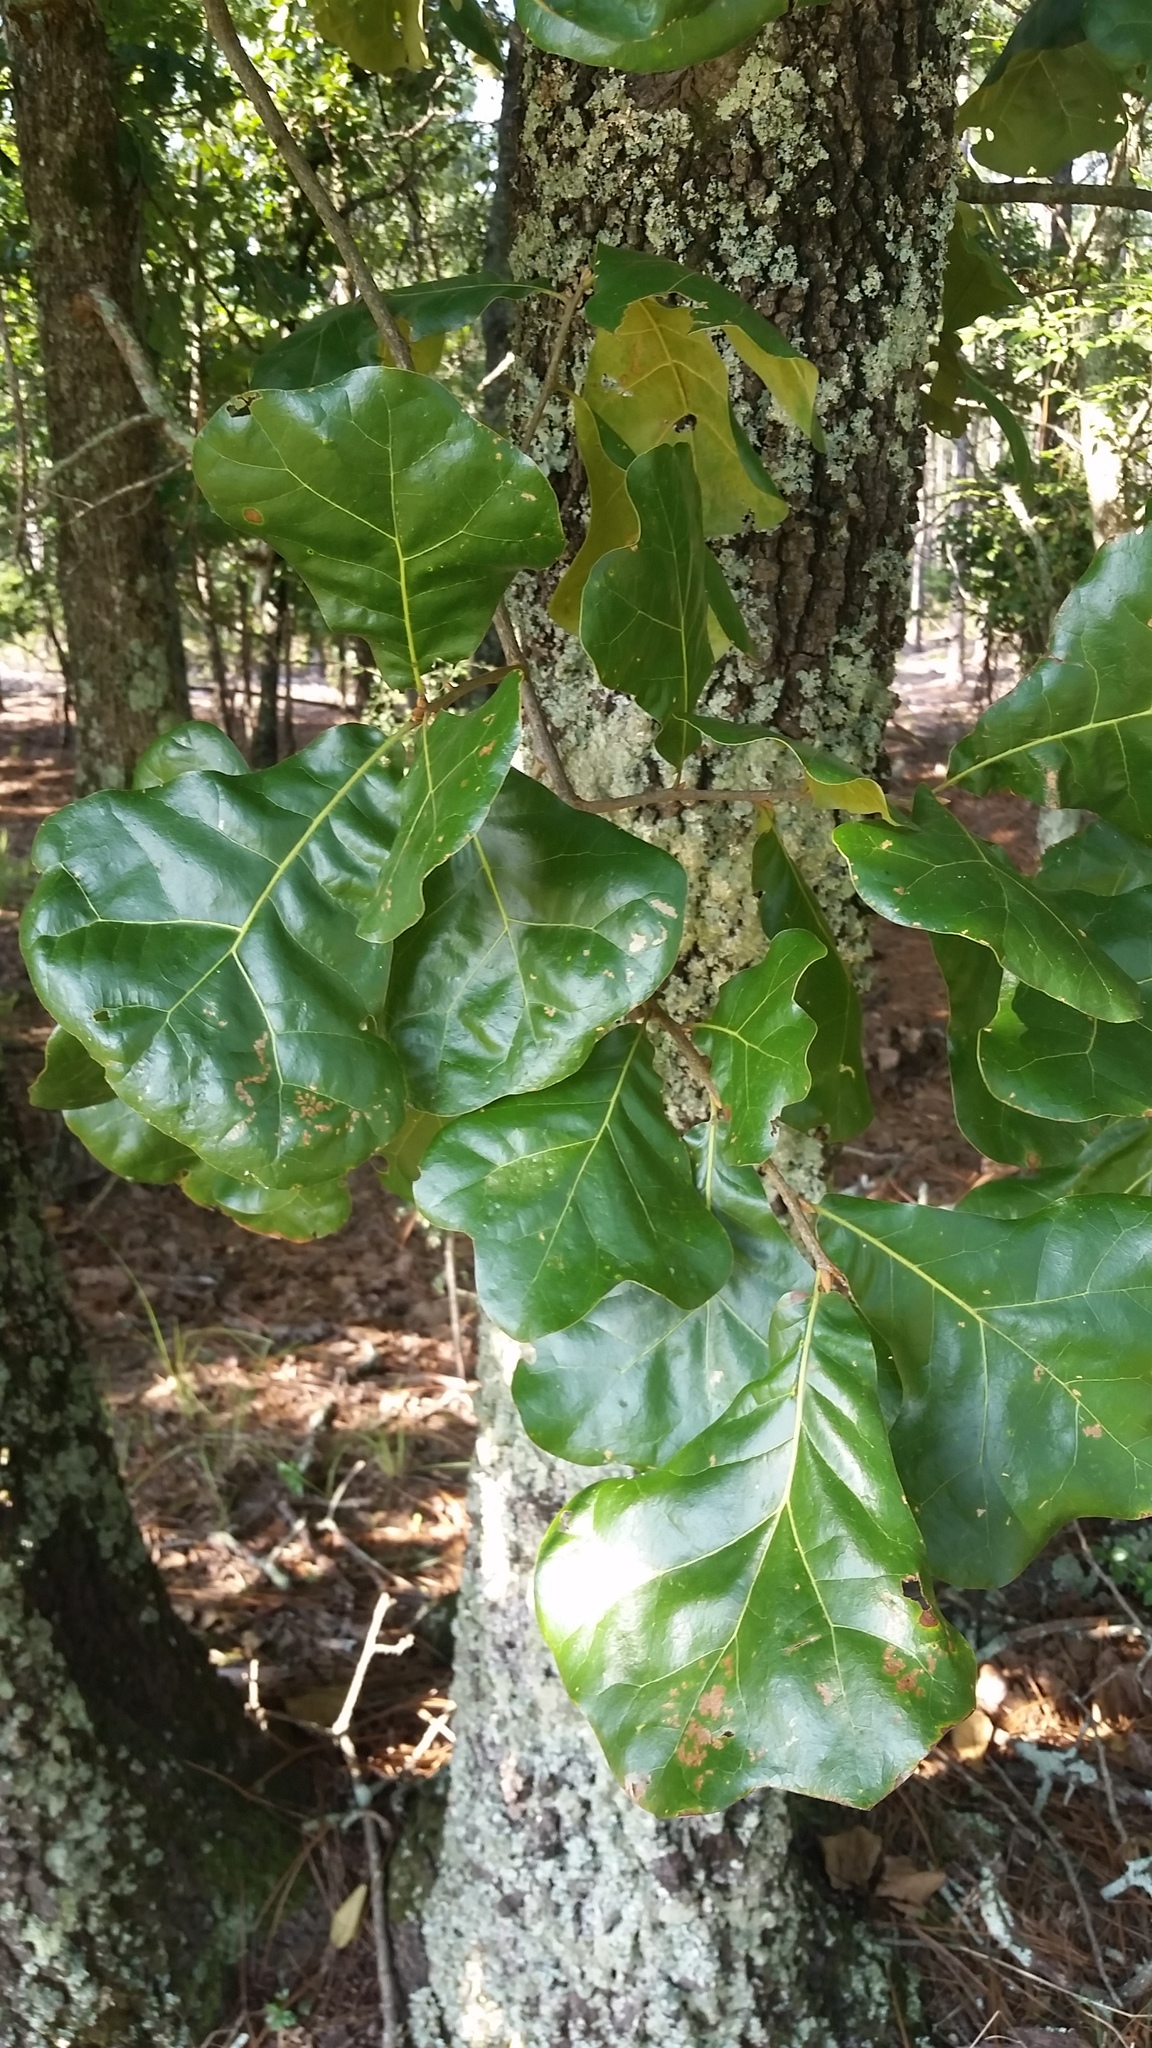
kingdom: Plantae
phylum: Tracheophyta
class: Magnoliopsida
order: Fagales
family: Fagaceae
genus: Quercus
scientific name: Quercus marilandica
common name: Blackjack oak
